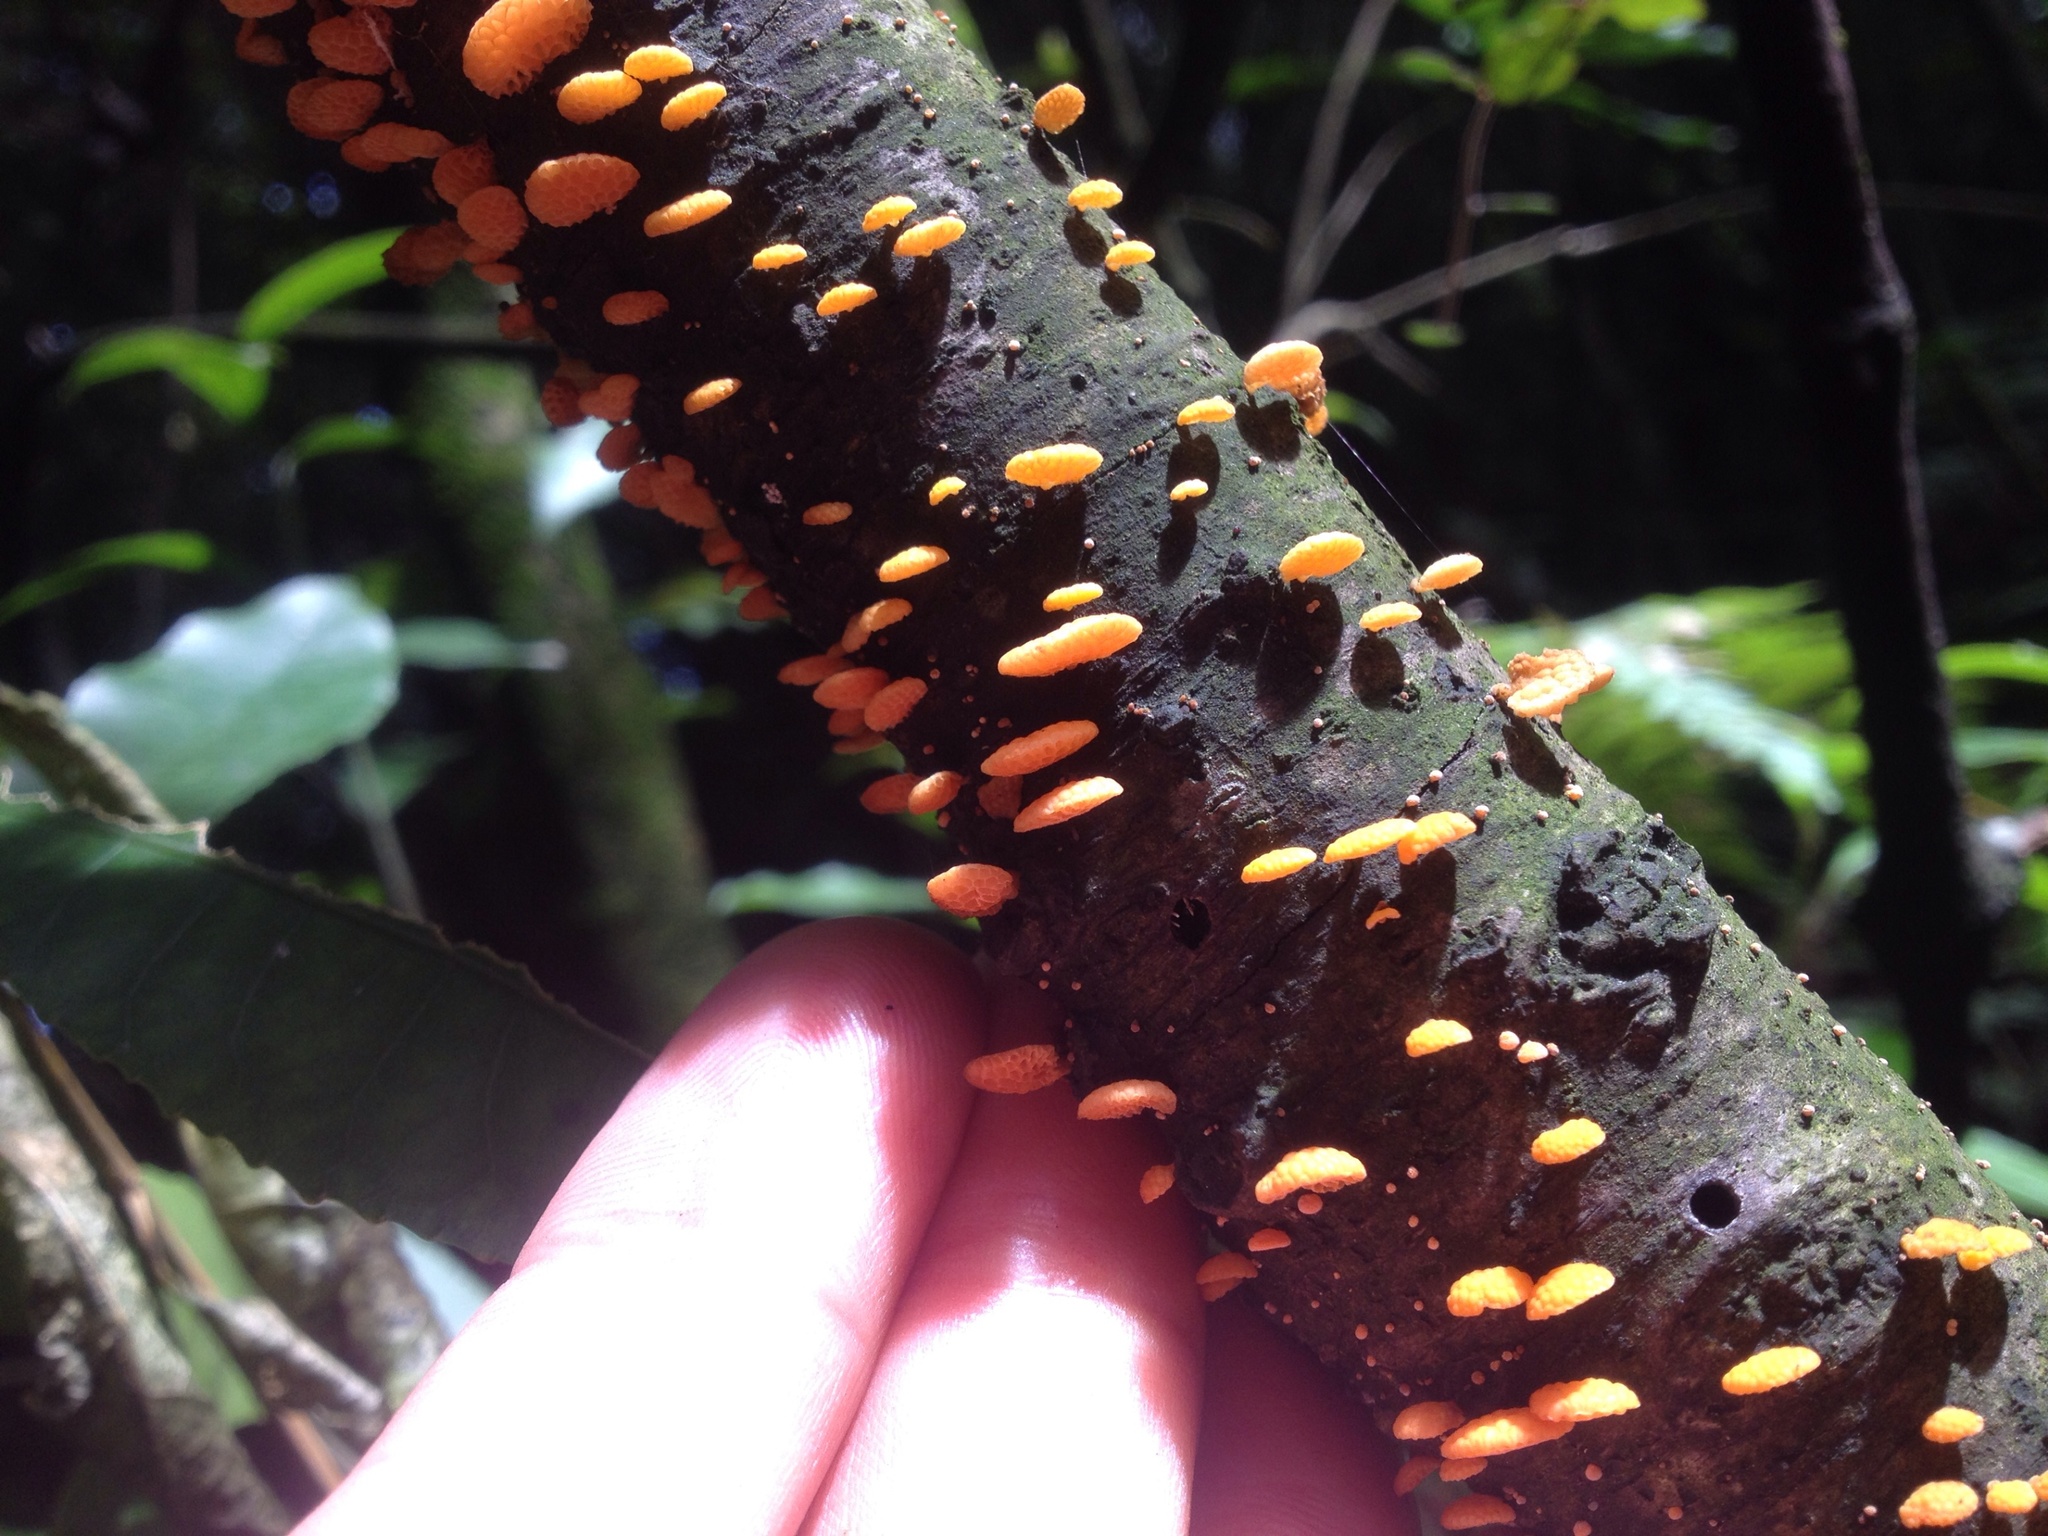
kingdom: Fungi
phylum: Basidiomycota
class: Agaricomycetes
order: Agaricales
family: Mycenaceae
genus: Favolaschia
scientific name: Favolaschia claudopus
